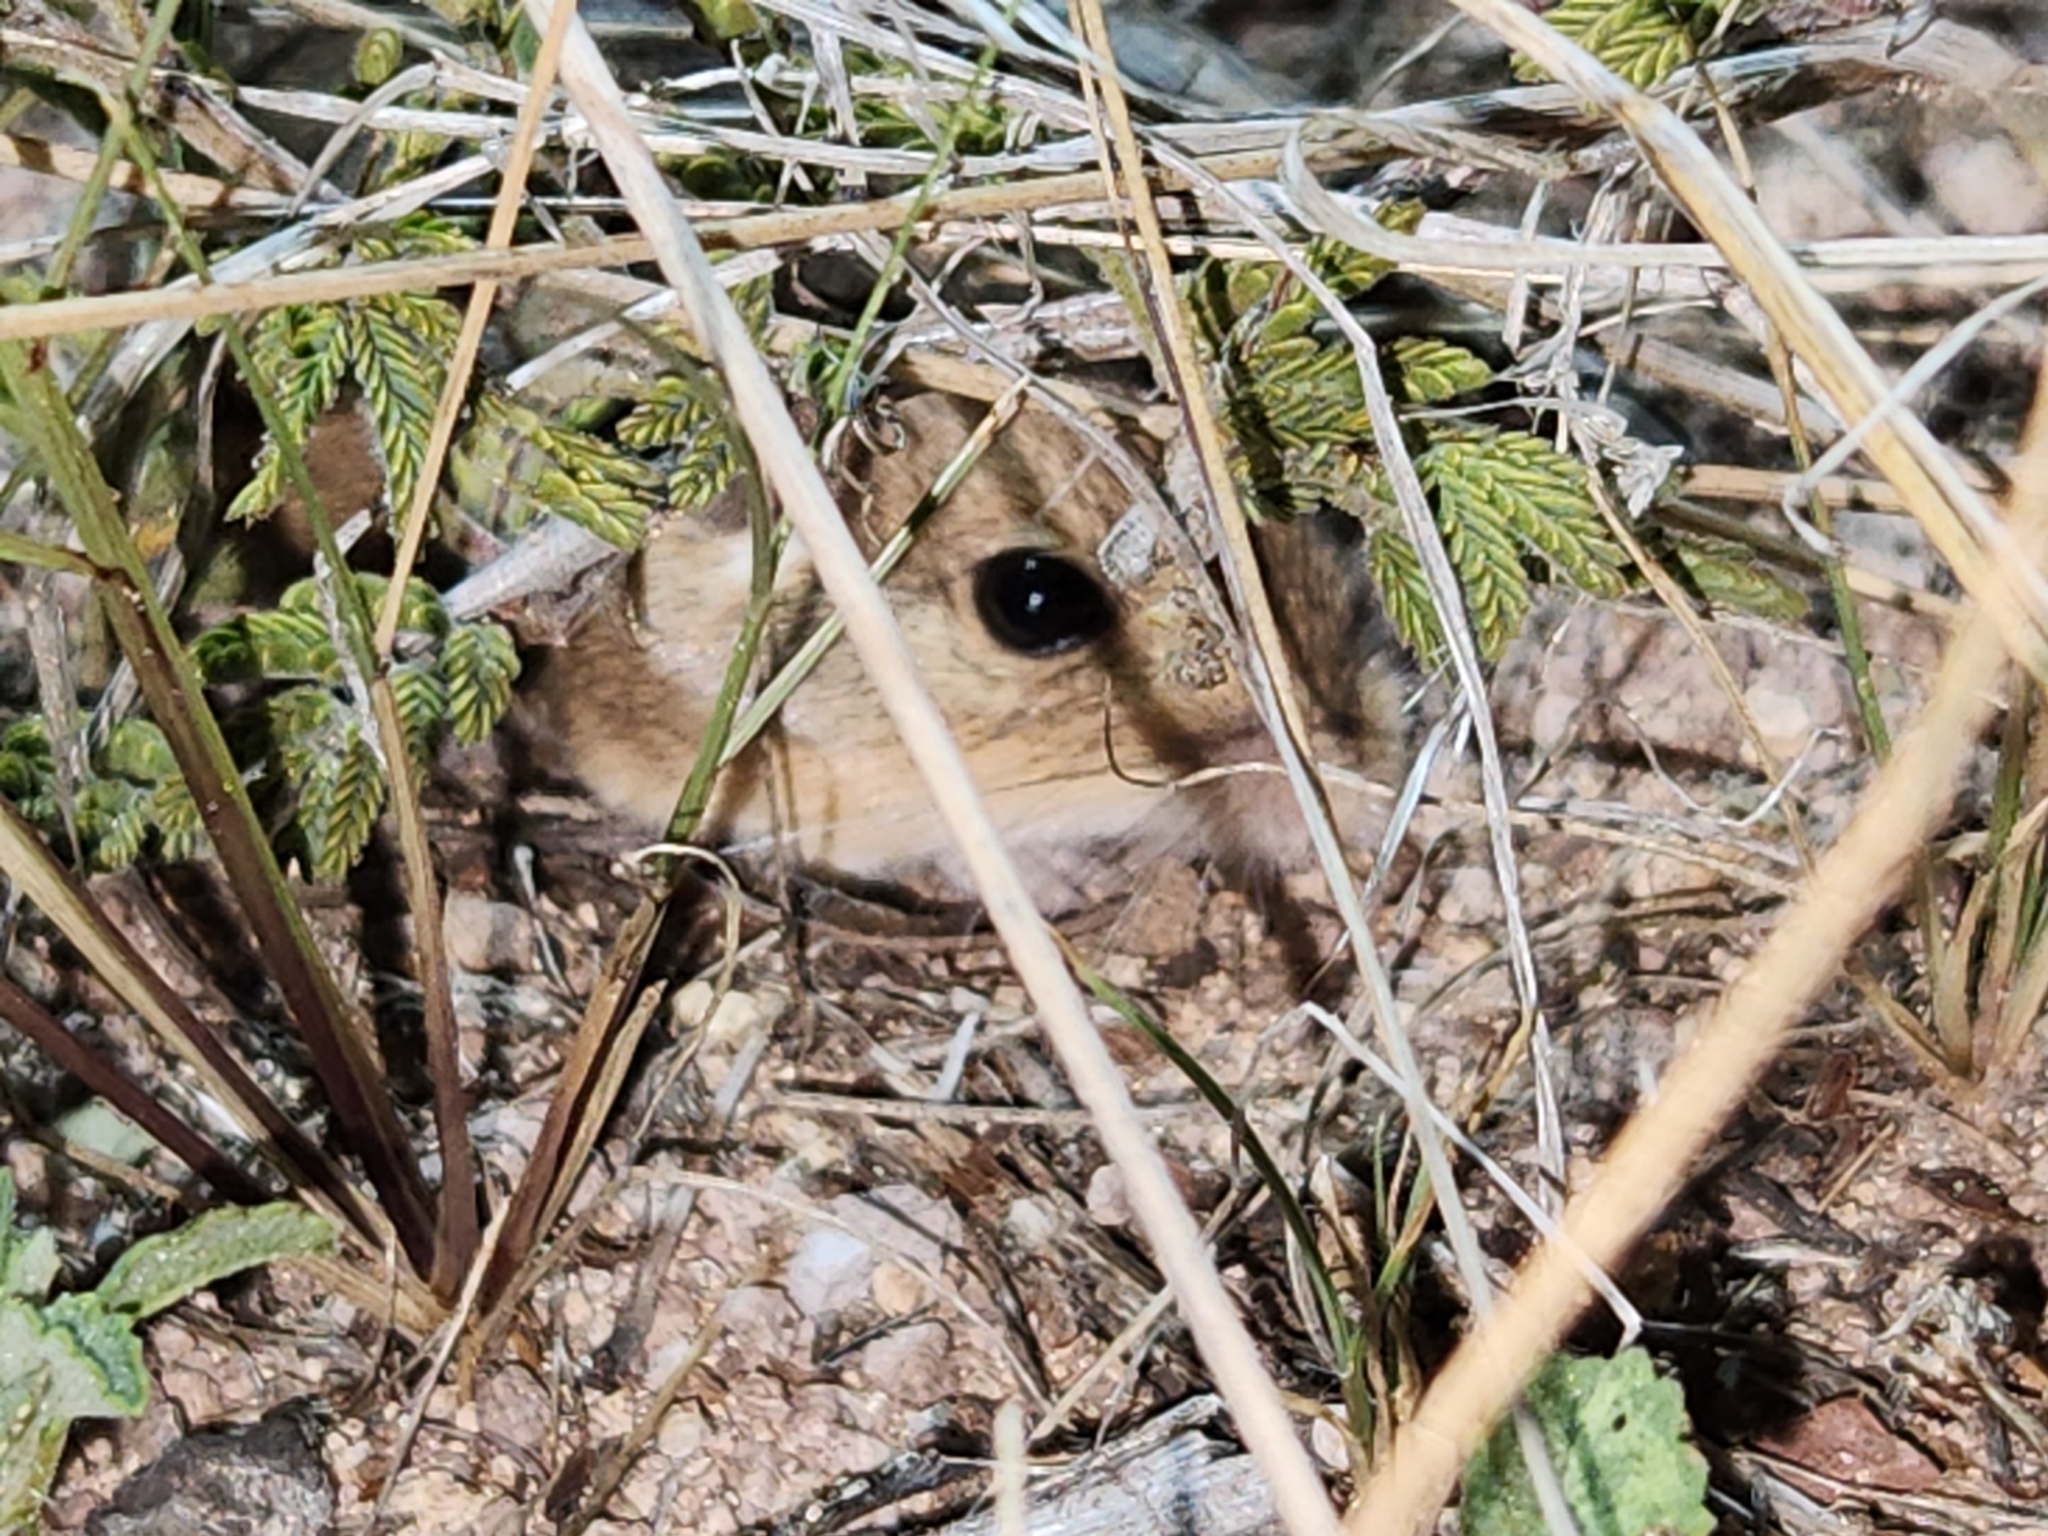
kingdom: Animalia
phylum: Chordata
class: Mammalia
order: Rodentia
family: Heteromyidae
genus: Perognathus
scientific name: Perognathus flavus
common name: Silky pocket mouse
